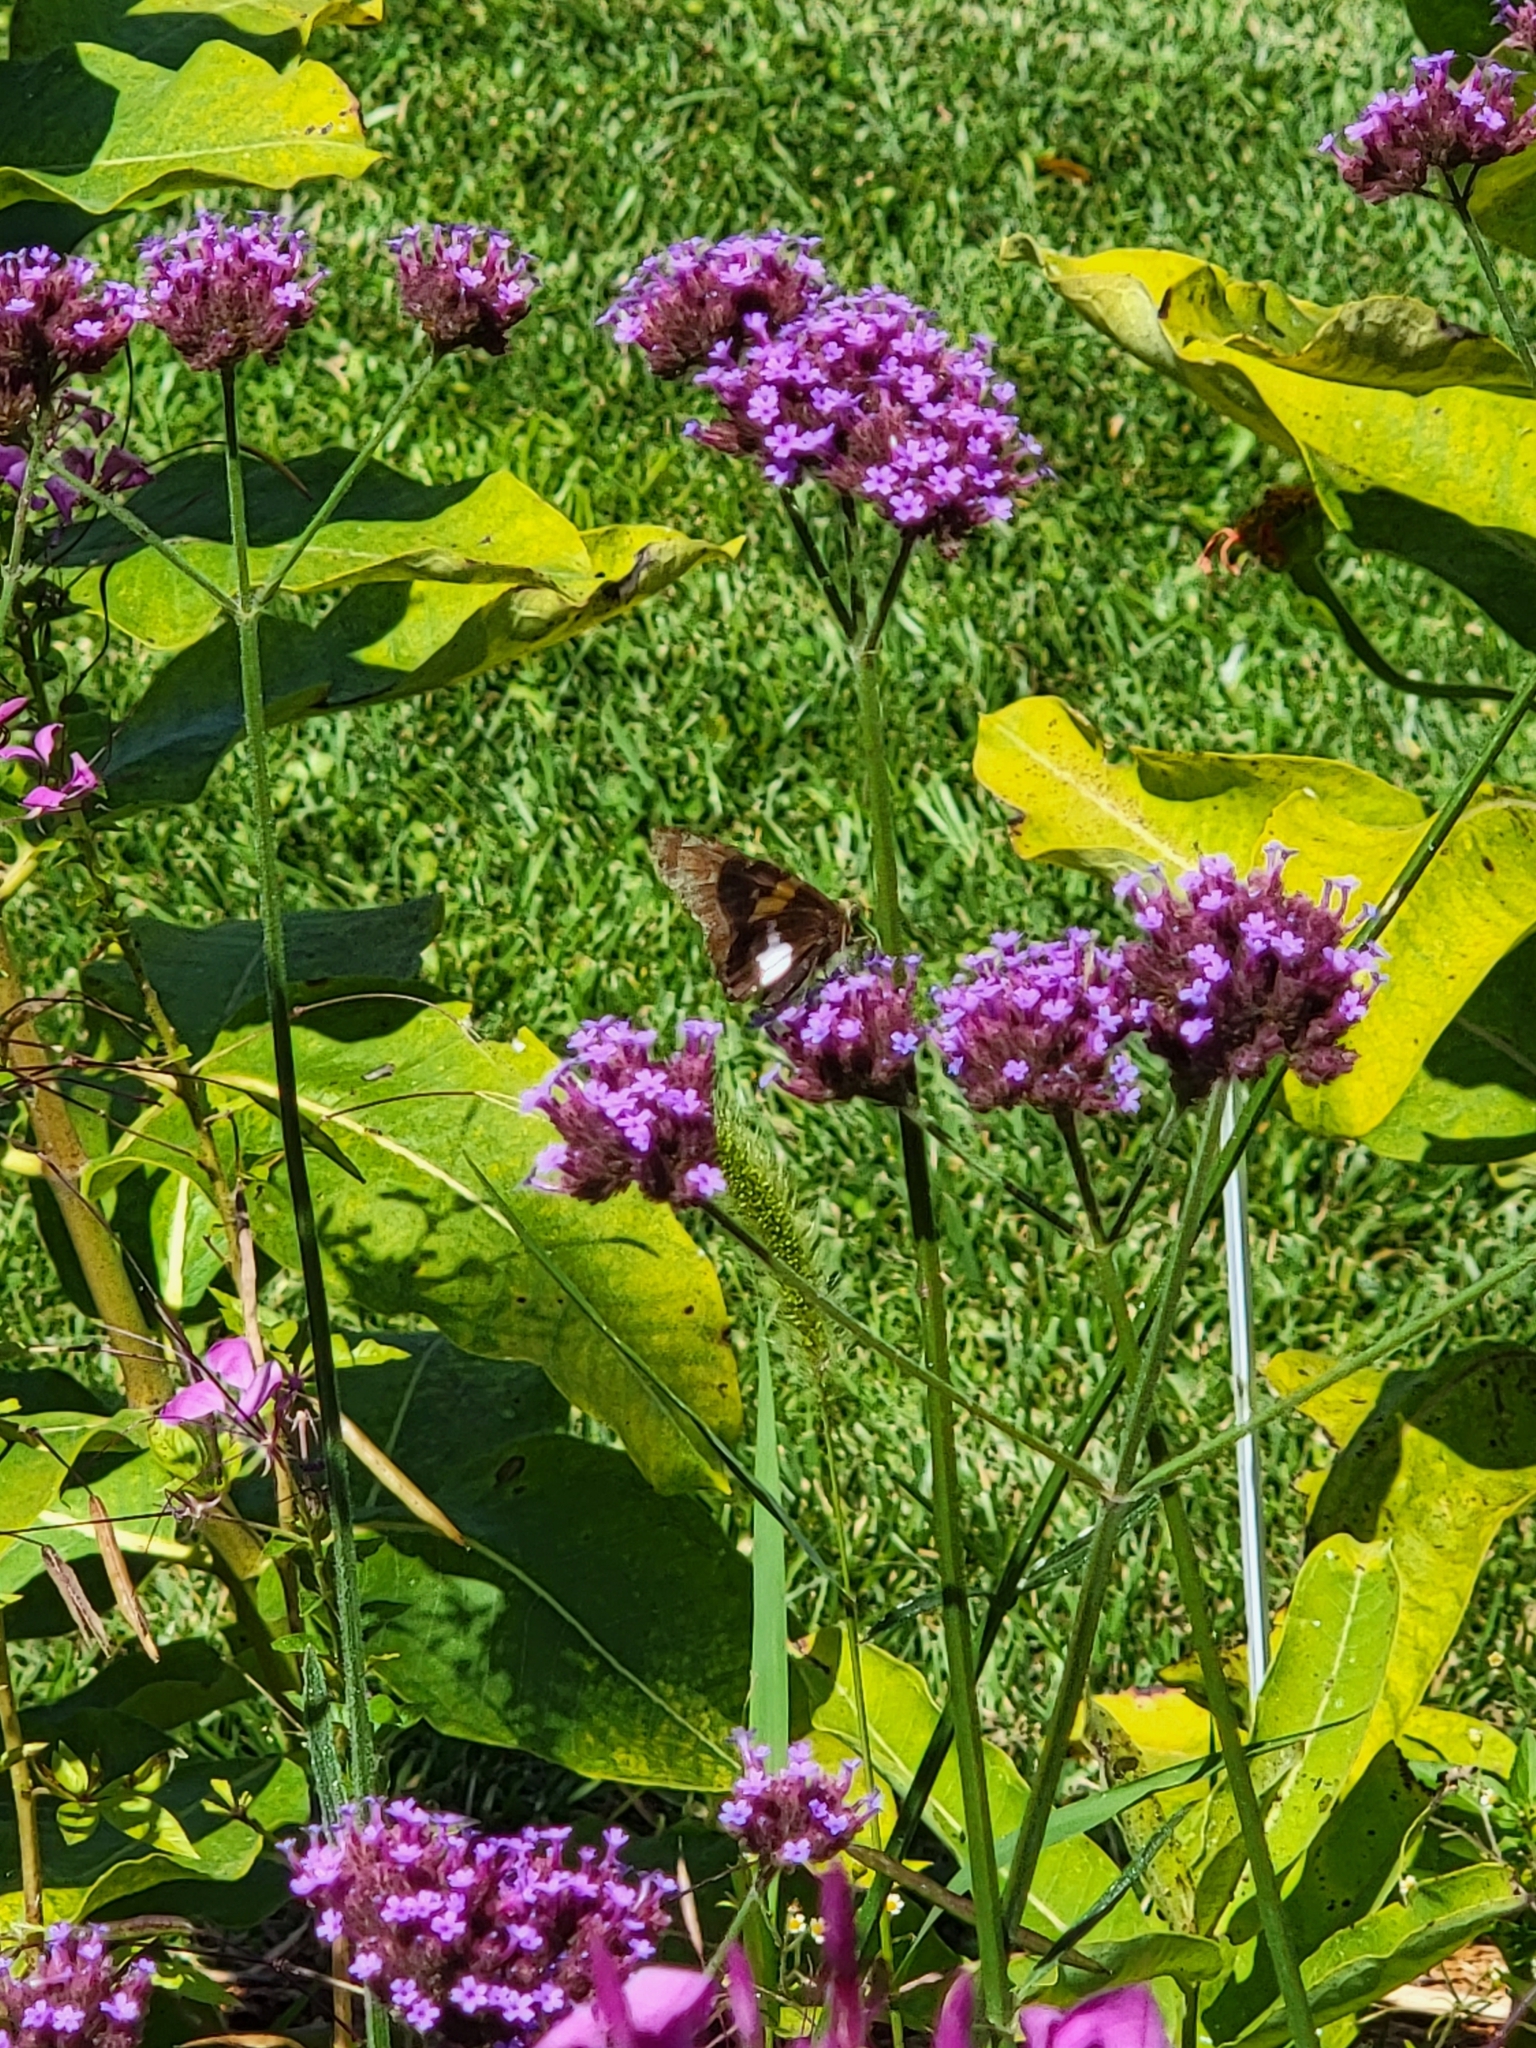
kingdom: Animalia
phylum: Arthropoda
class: Insecta
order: Lepidoptera
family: Hesperiidae
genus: Epargyreus
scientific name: Epargyreus clarus
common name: Silver-spotted skipper
